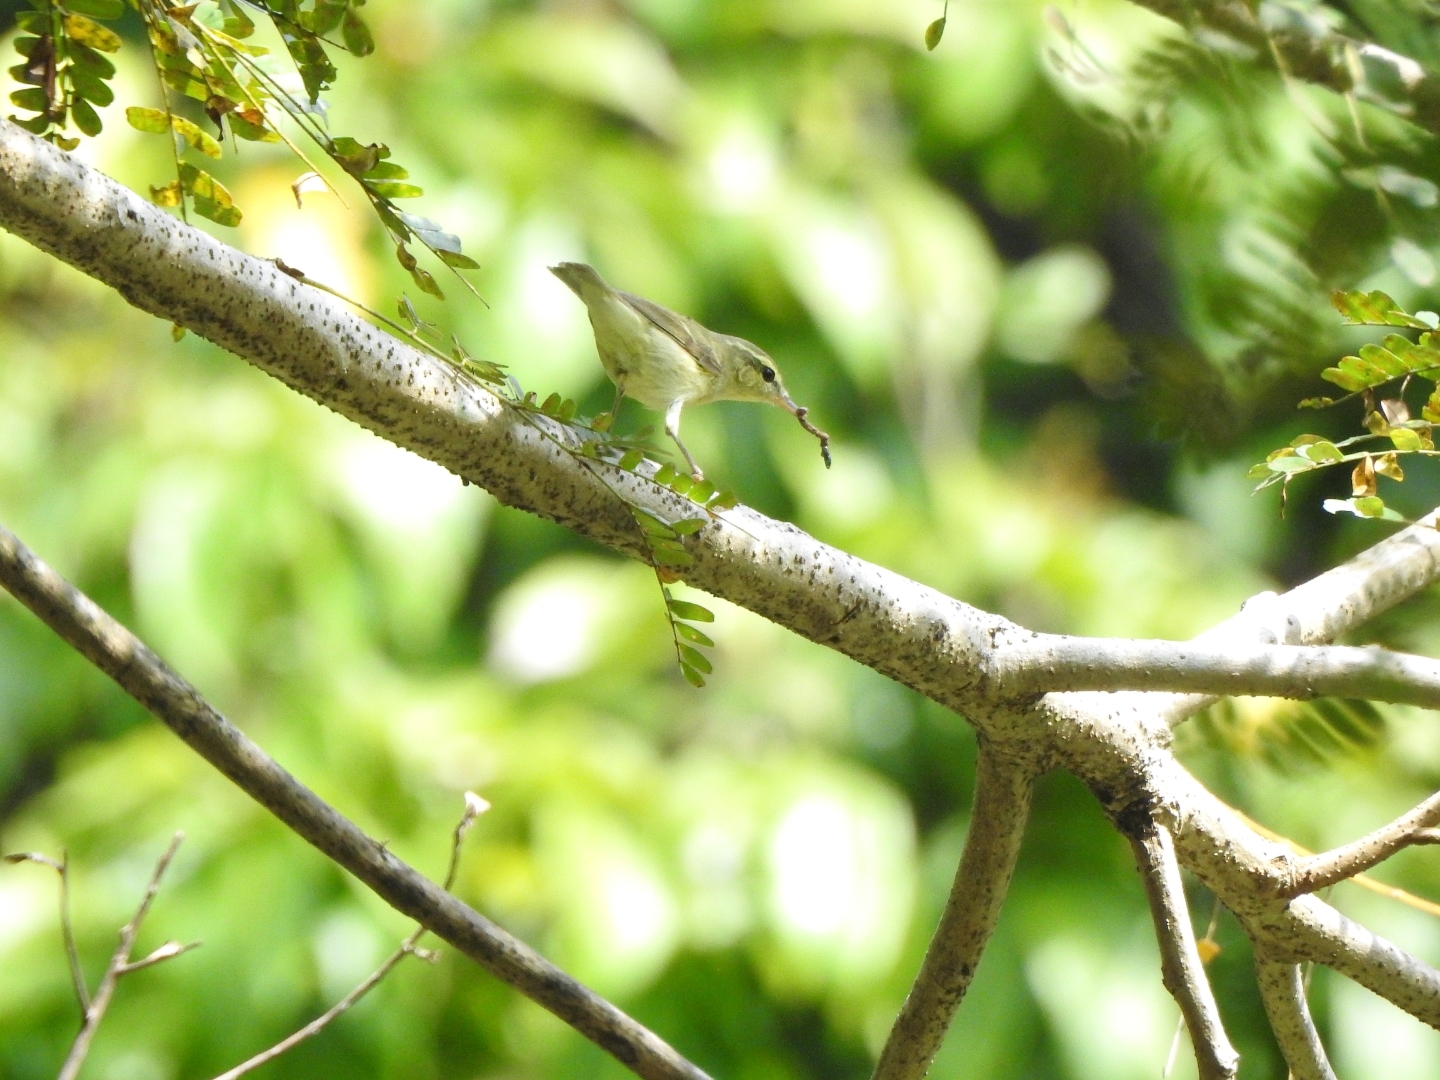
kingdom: Animalia
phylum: Chordata
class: Aves
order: Passeriformes
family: Phylloscopidae
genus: Phylloscopus
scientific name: Phylloscopus trochiloides
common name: Greenish warbler
